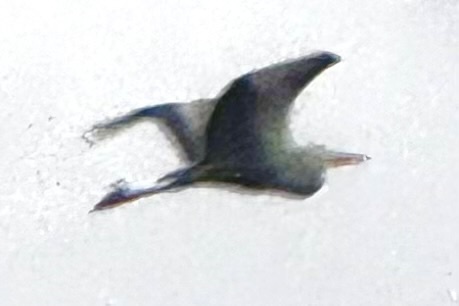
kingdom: Animalia
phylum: Chordata
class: Aves
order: Pelecaniformes
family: Ardeidae
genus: Ardea
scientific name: Ardea herodias
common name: Great blue heron
